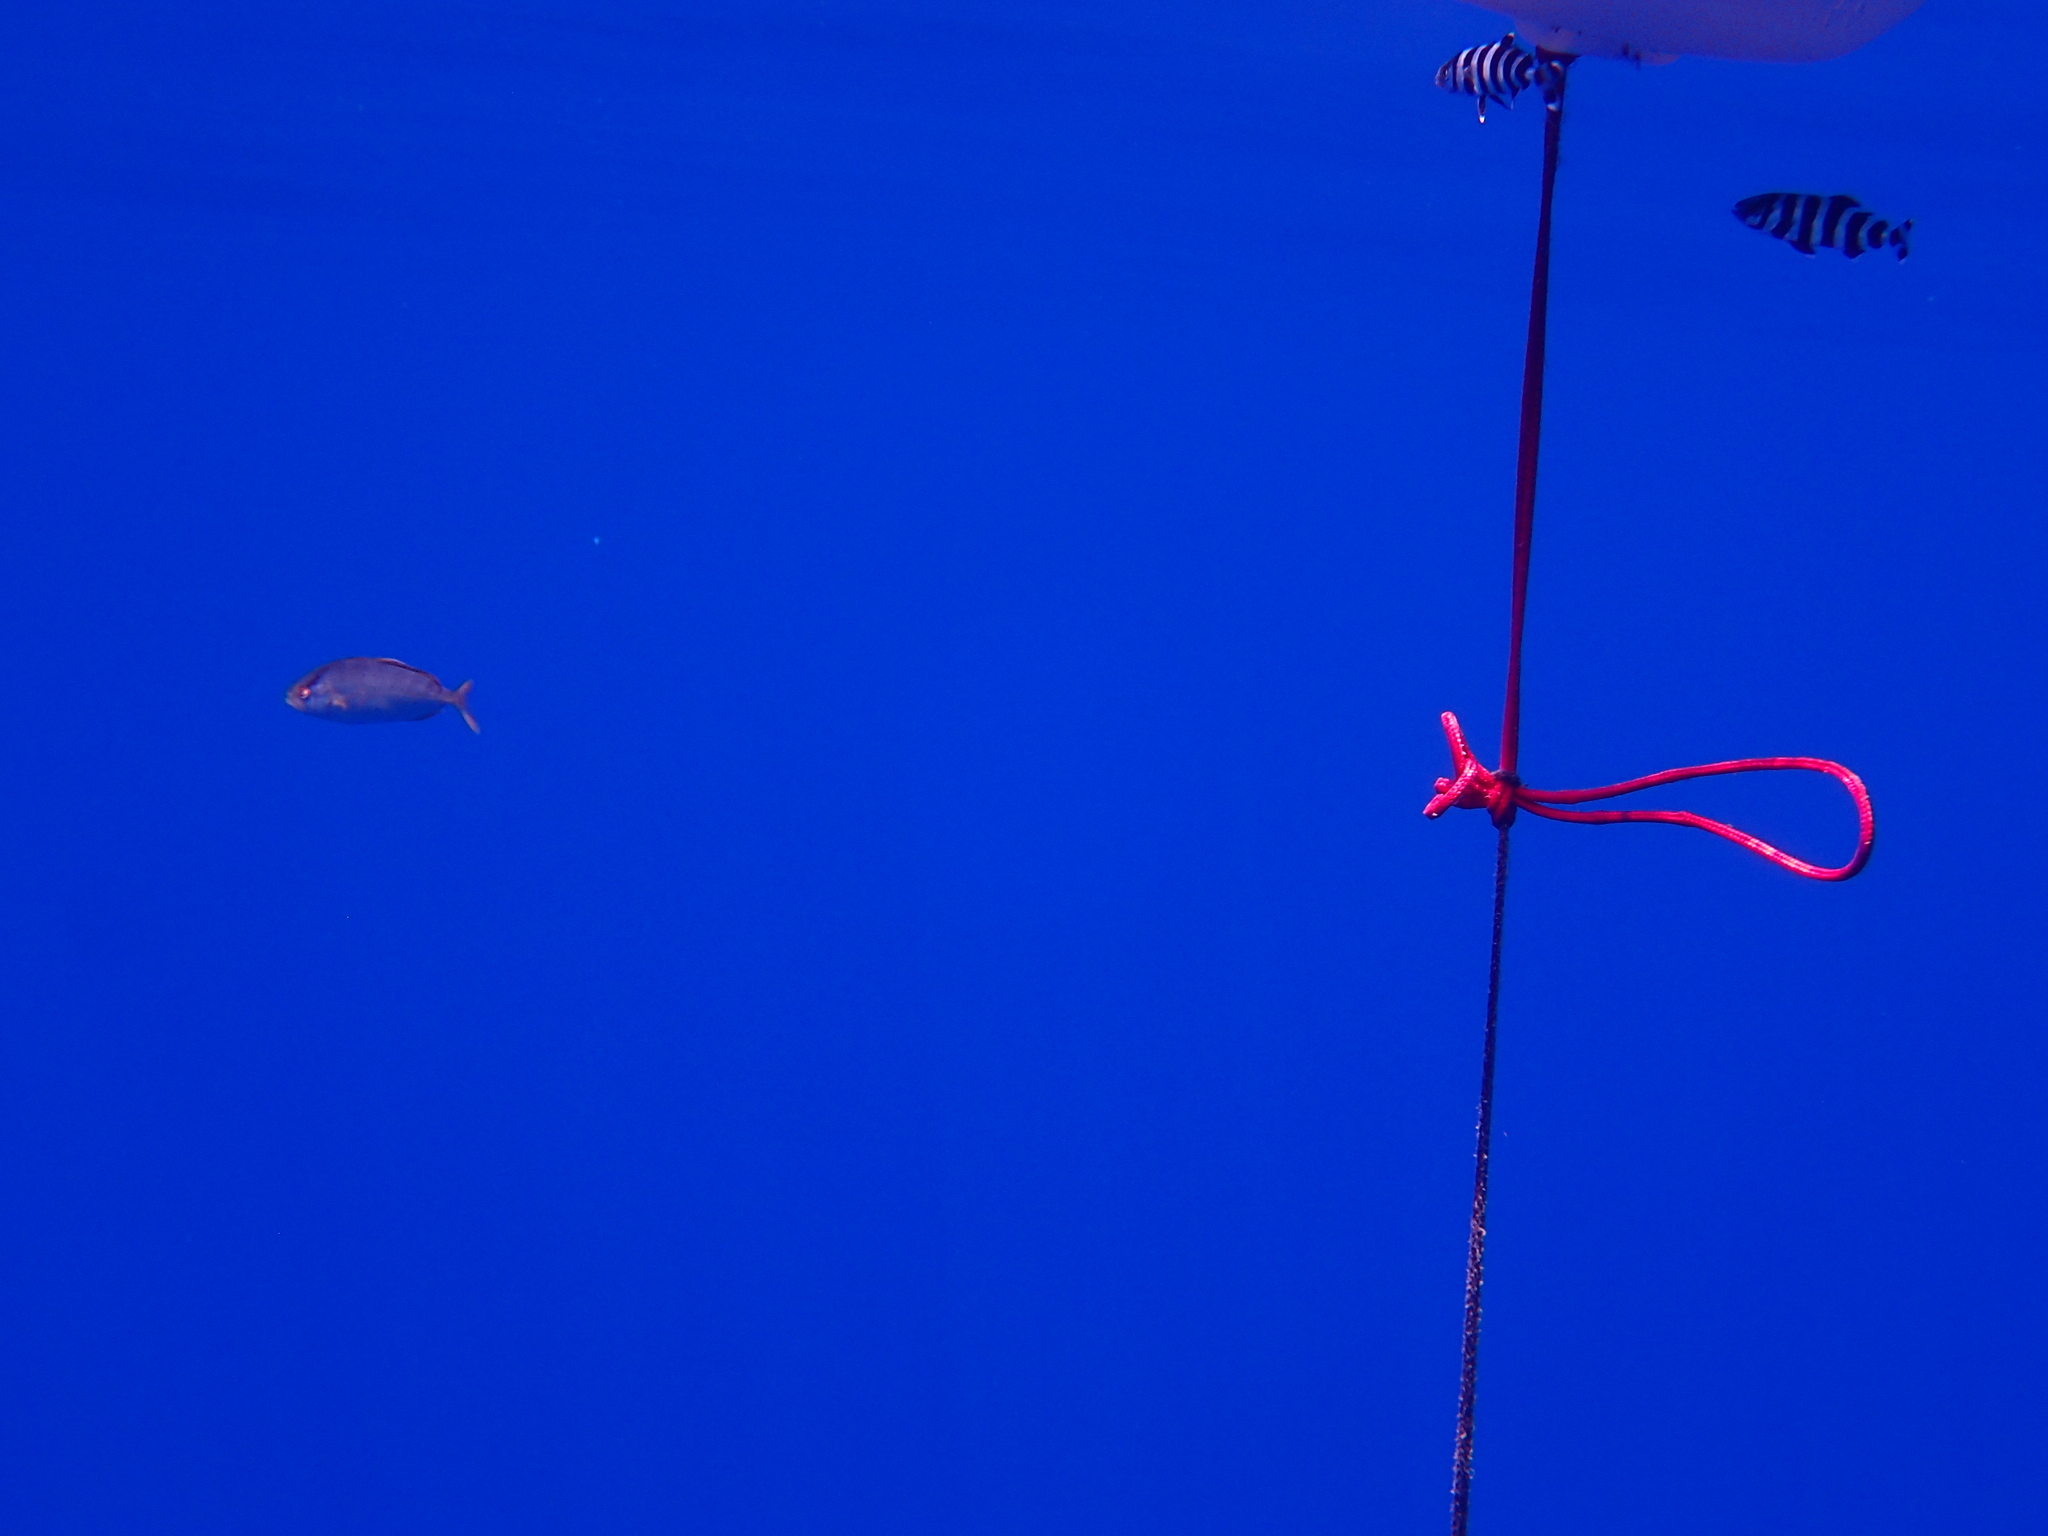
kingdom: Animalia
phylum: Chordata
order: Perciformes
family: Carangidae
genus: Seriola
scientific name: Seriola dumerili
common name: Greater amberjack
